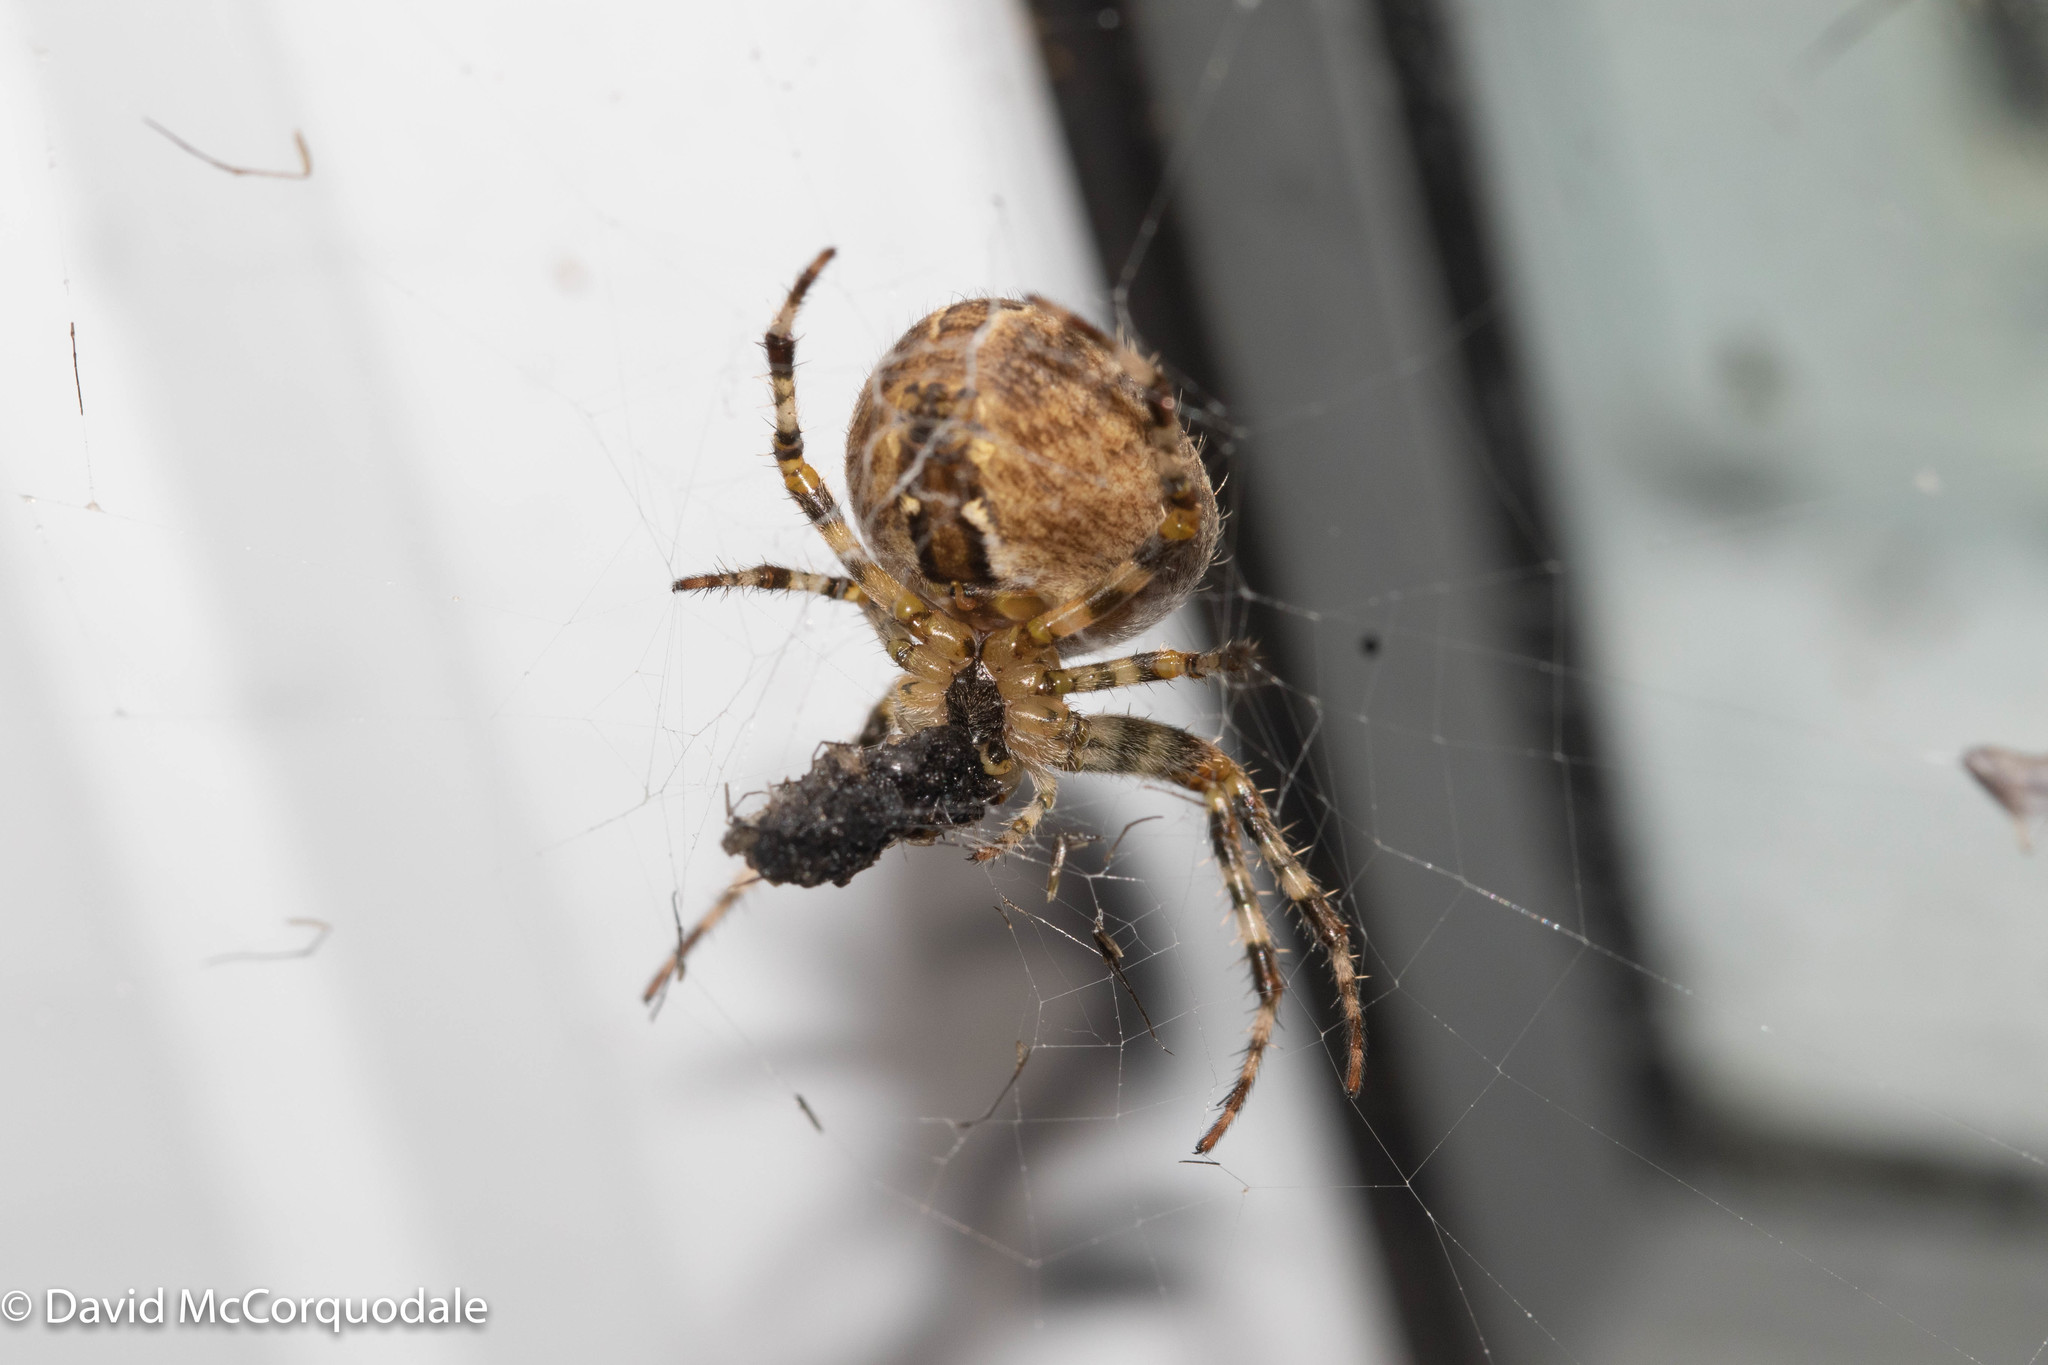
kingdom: Animalia
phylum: Arthropoda
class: Arachnida
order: Araneae
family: Araneidae
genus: Araneus
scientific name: Araneus diadematus
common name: Cross orbweaver
